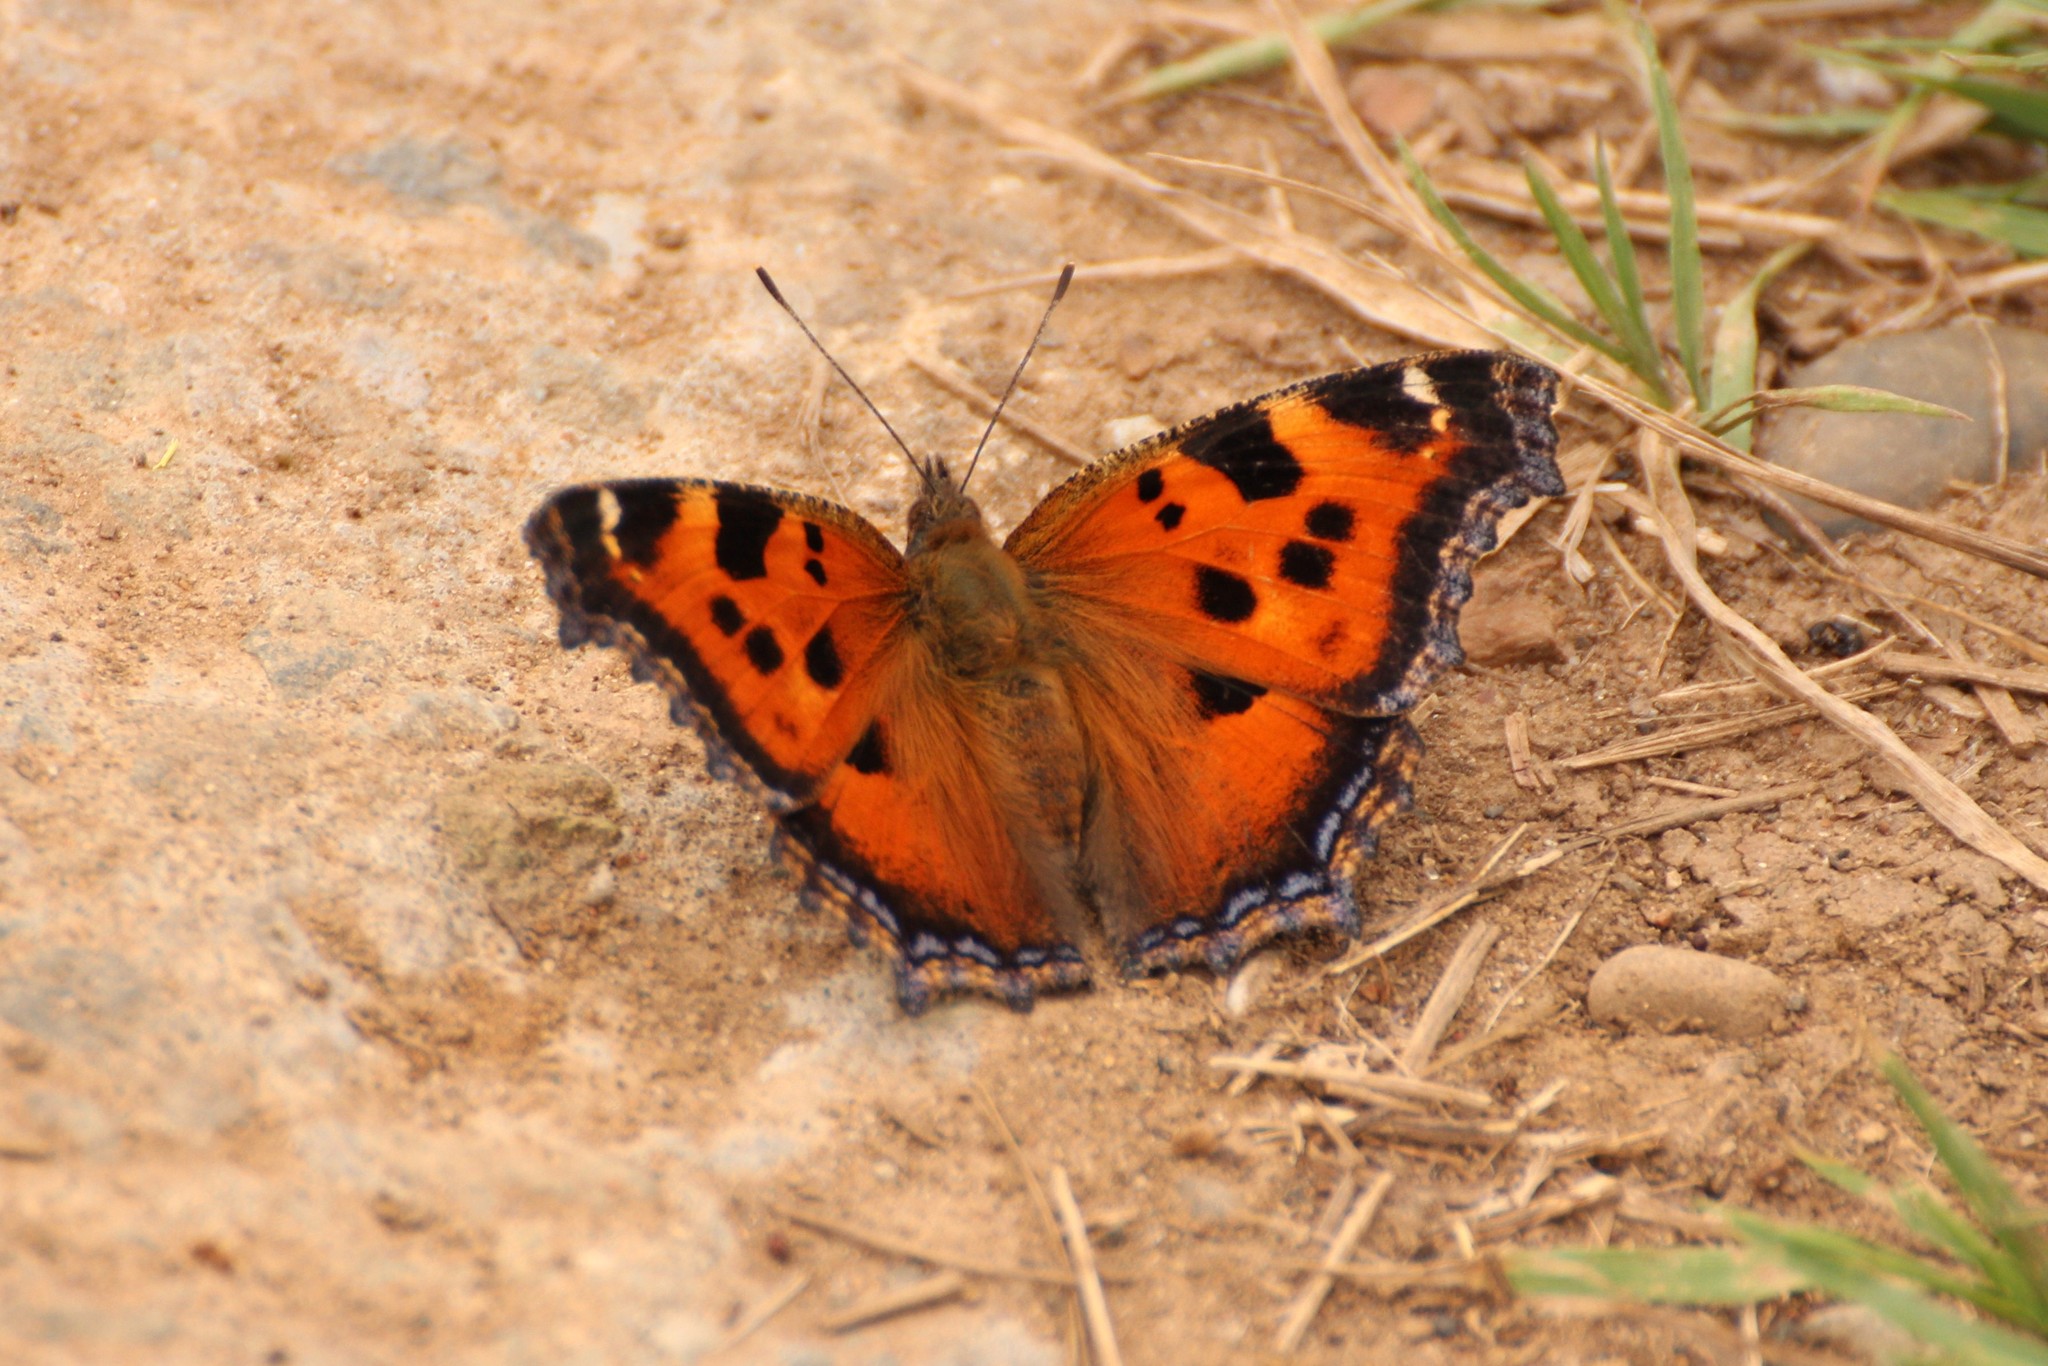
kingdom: Animalia
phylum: Arthropoda
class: Insecta
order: Lepidoptera
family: Nymphalidae
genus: Nymphalis
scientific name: Nymphalis xanthomelas
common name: Scarce tortoiseshell
